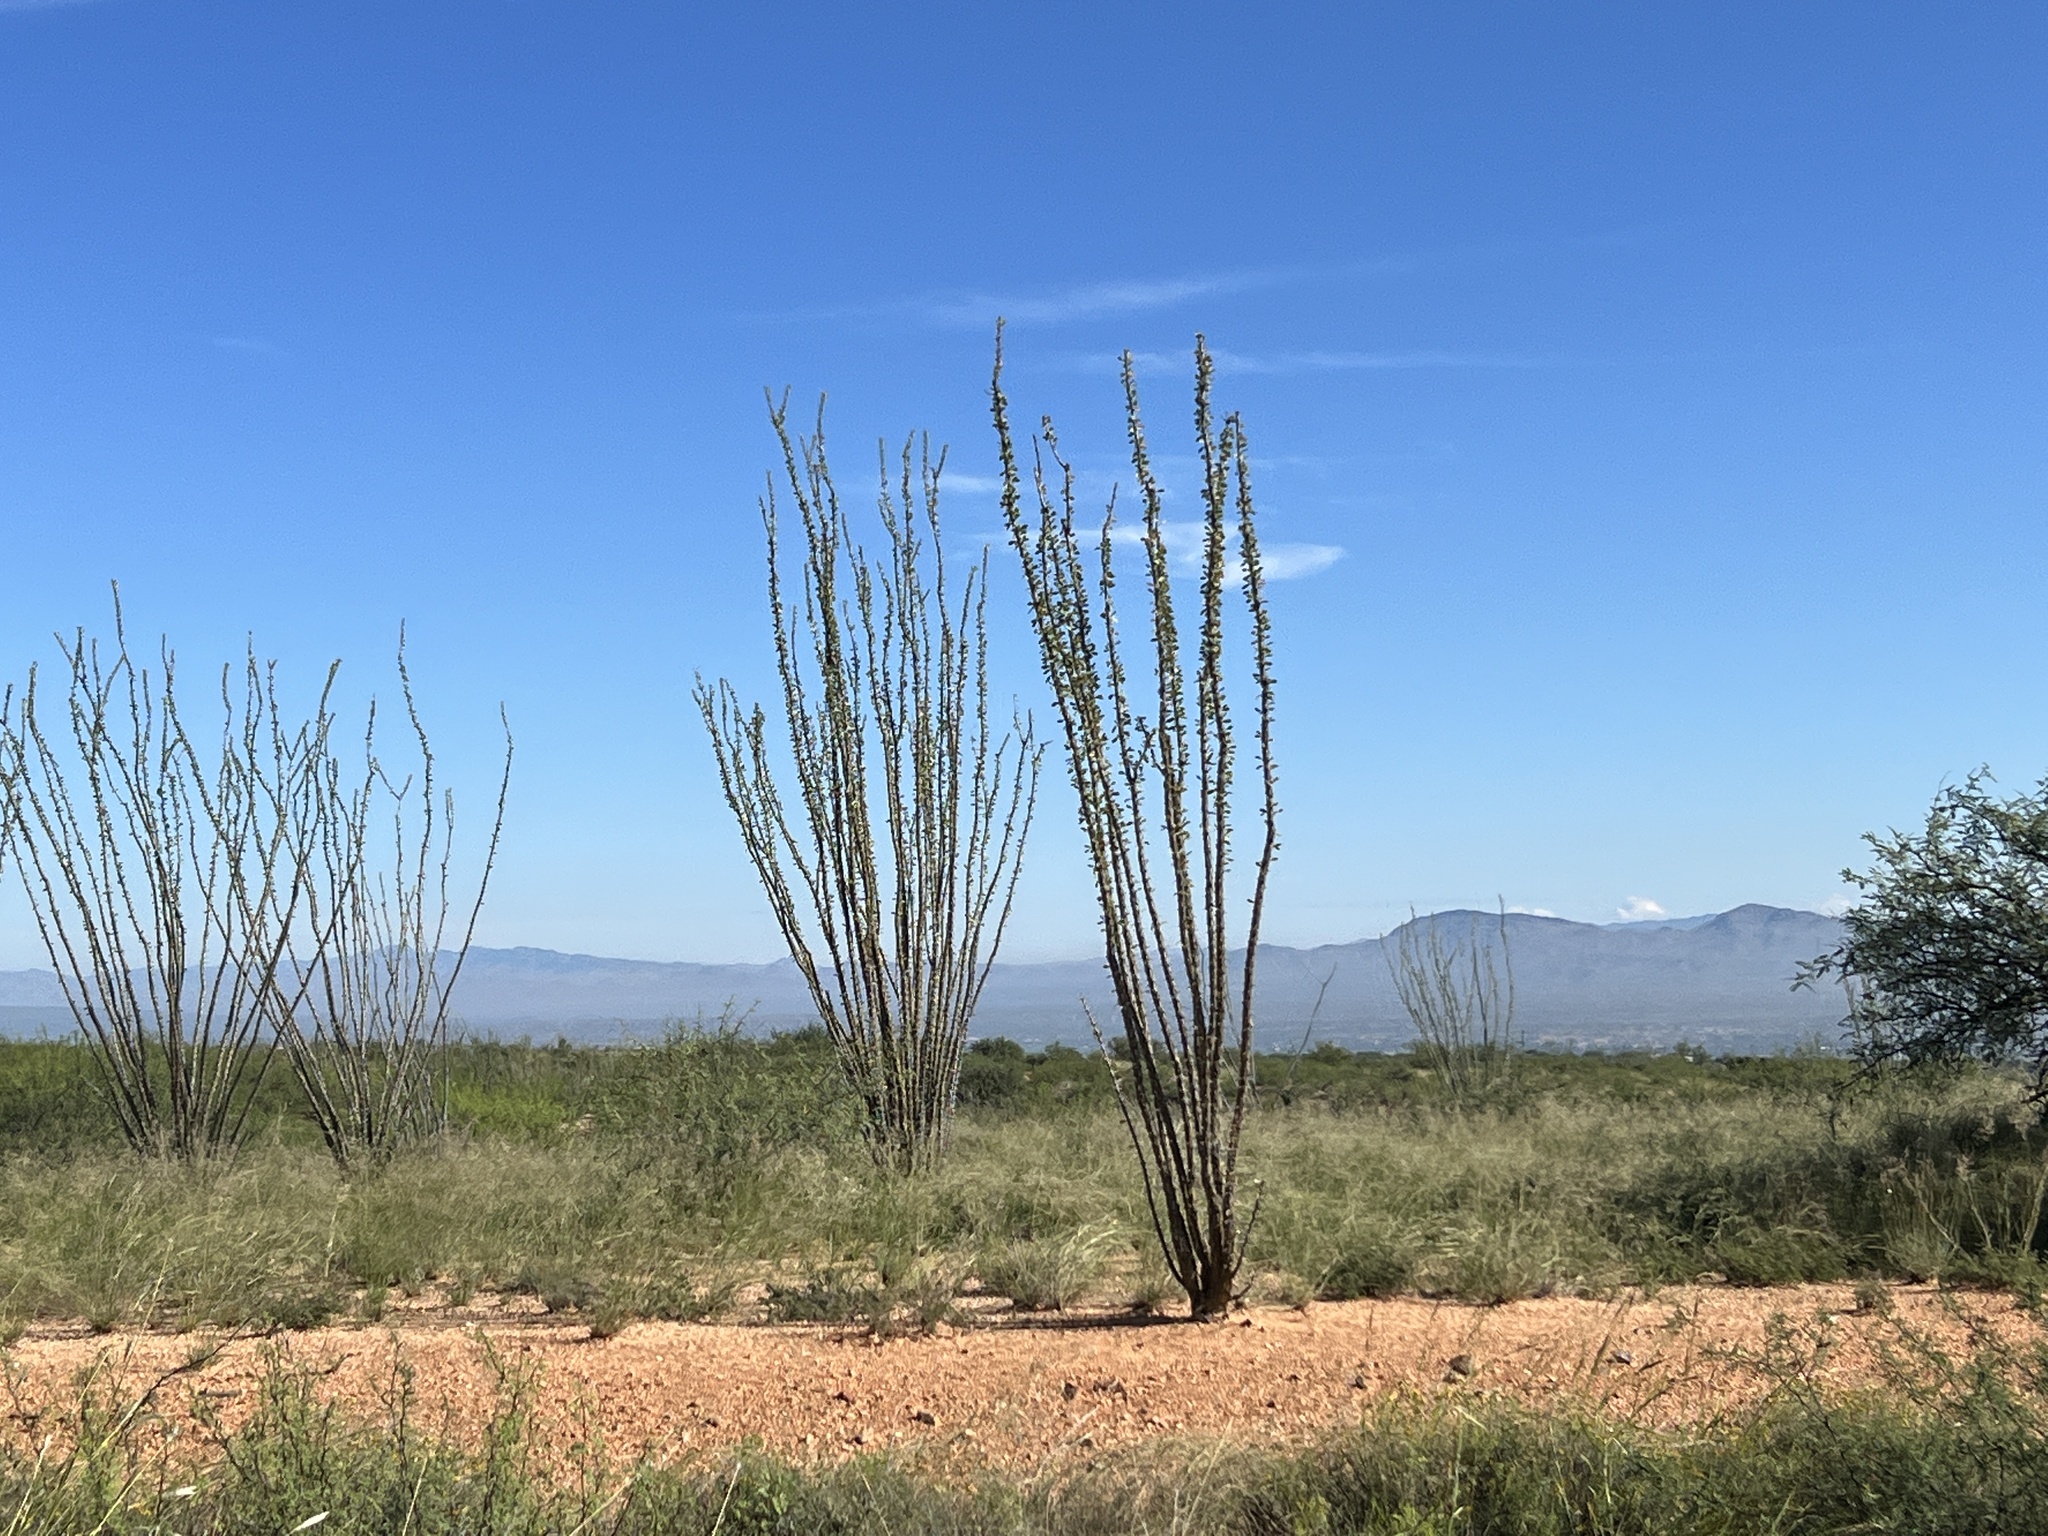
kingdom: Plantae
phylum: Tracheophyta
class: Magnoliopsida
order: Ericales
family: Fouquieriaceae
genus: Fouquieria
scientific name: Fouquieria splendens
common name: Vine-cactus
